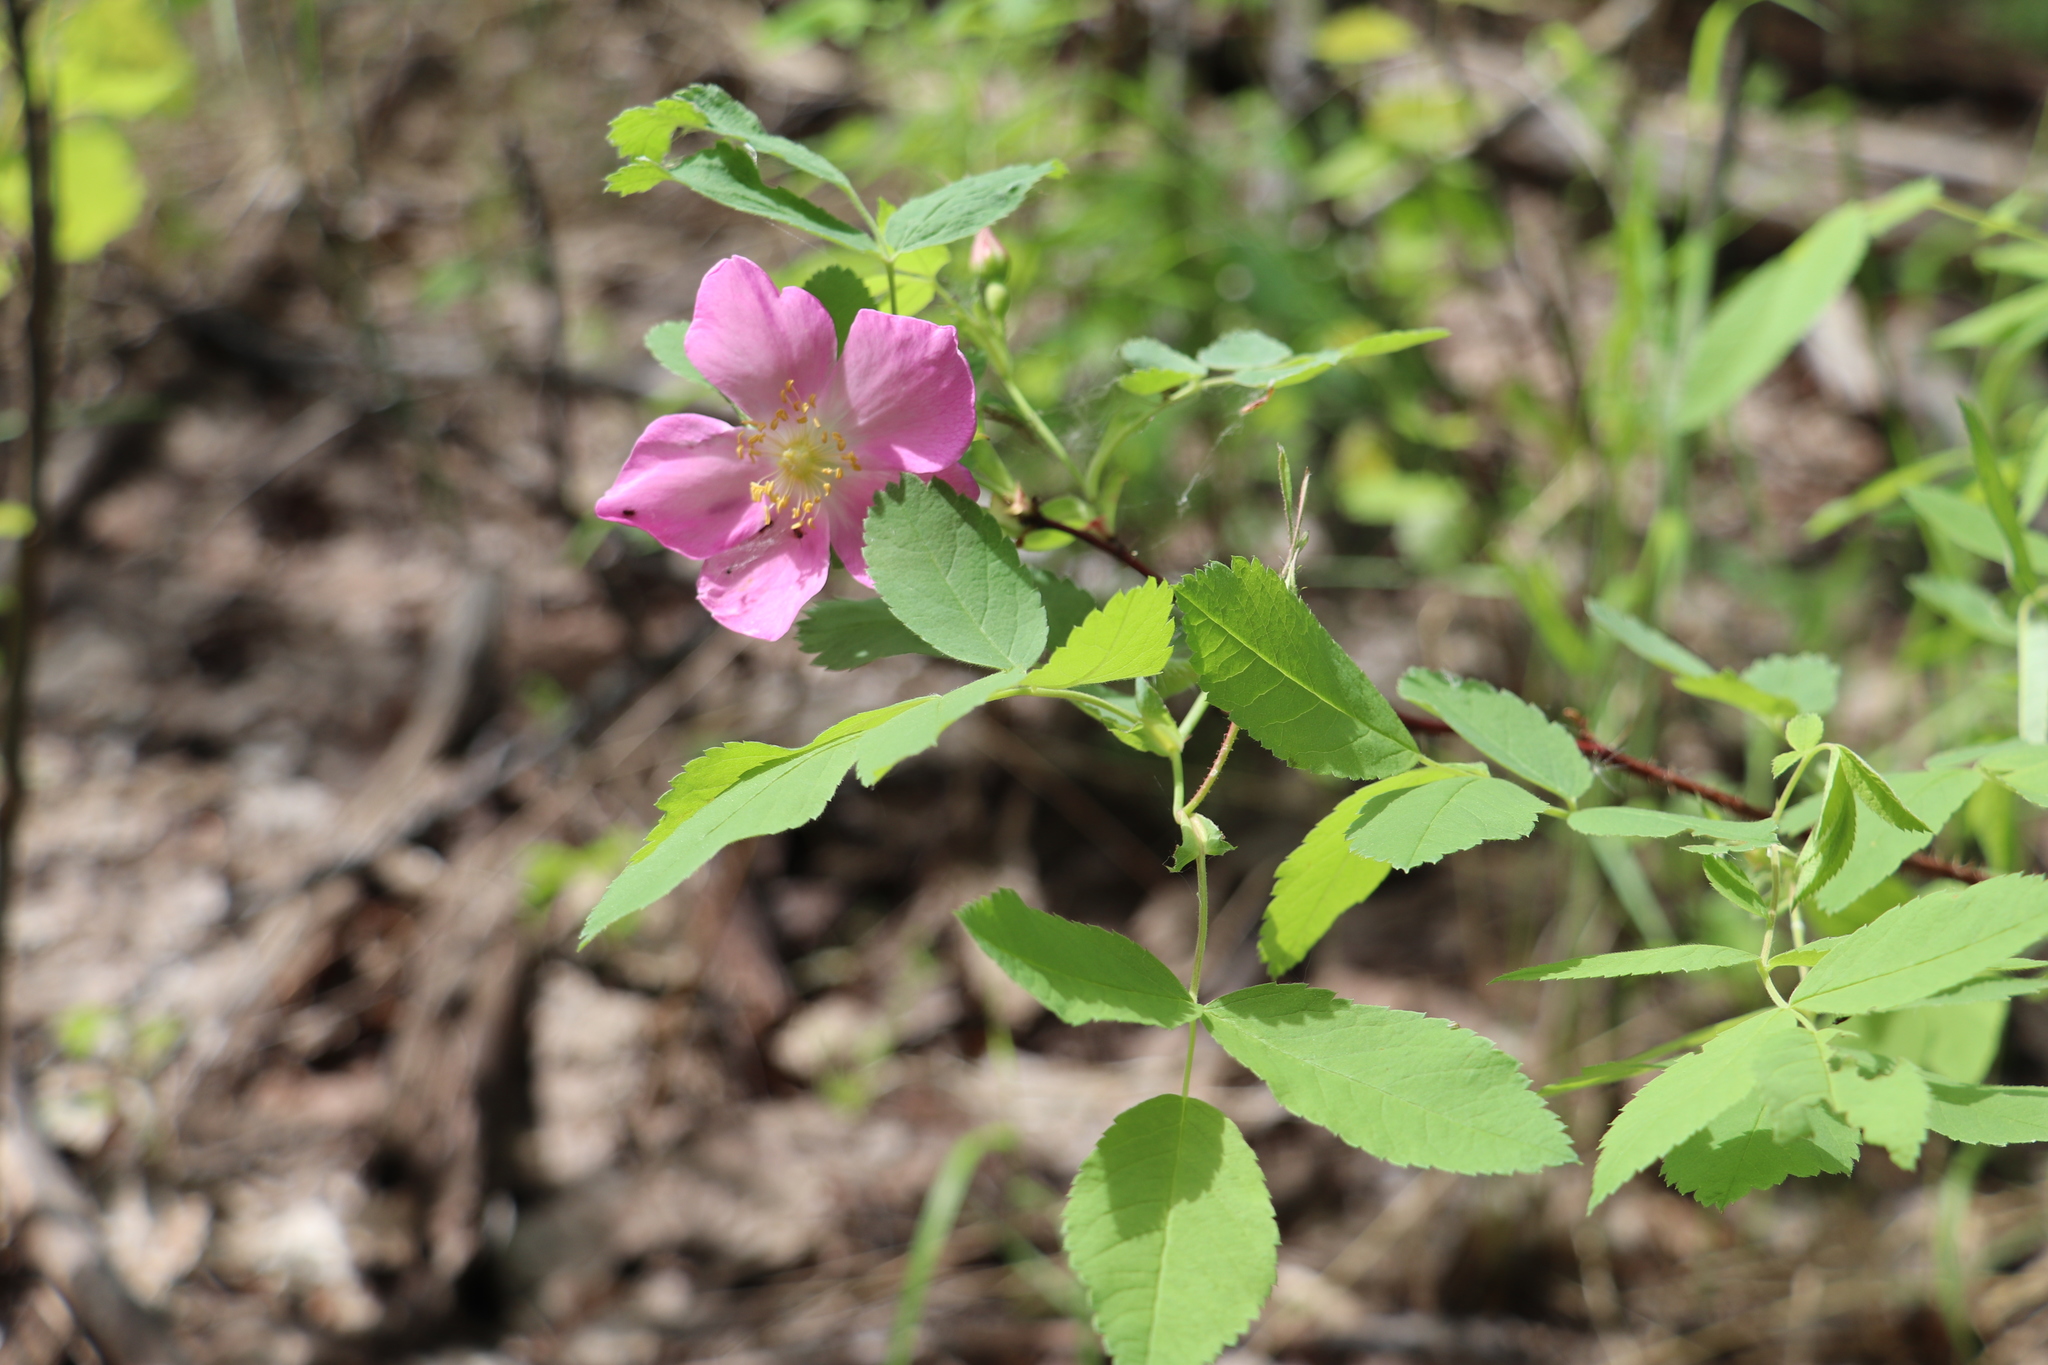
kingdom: Plantae
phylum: Tracheophyta
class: Magnoliopsida
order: Rosales
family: Rosaceae
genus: Rosa
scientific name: Rosa acicularis
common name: Prickly rose
